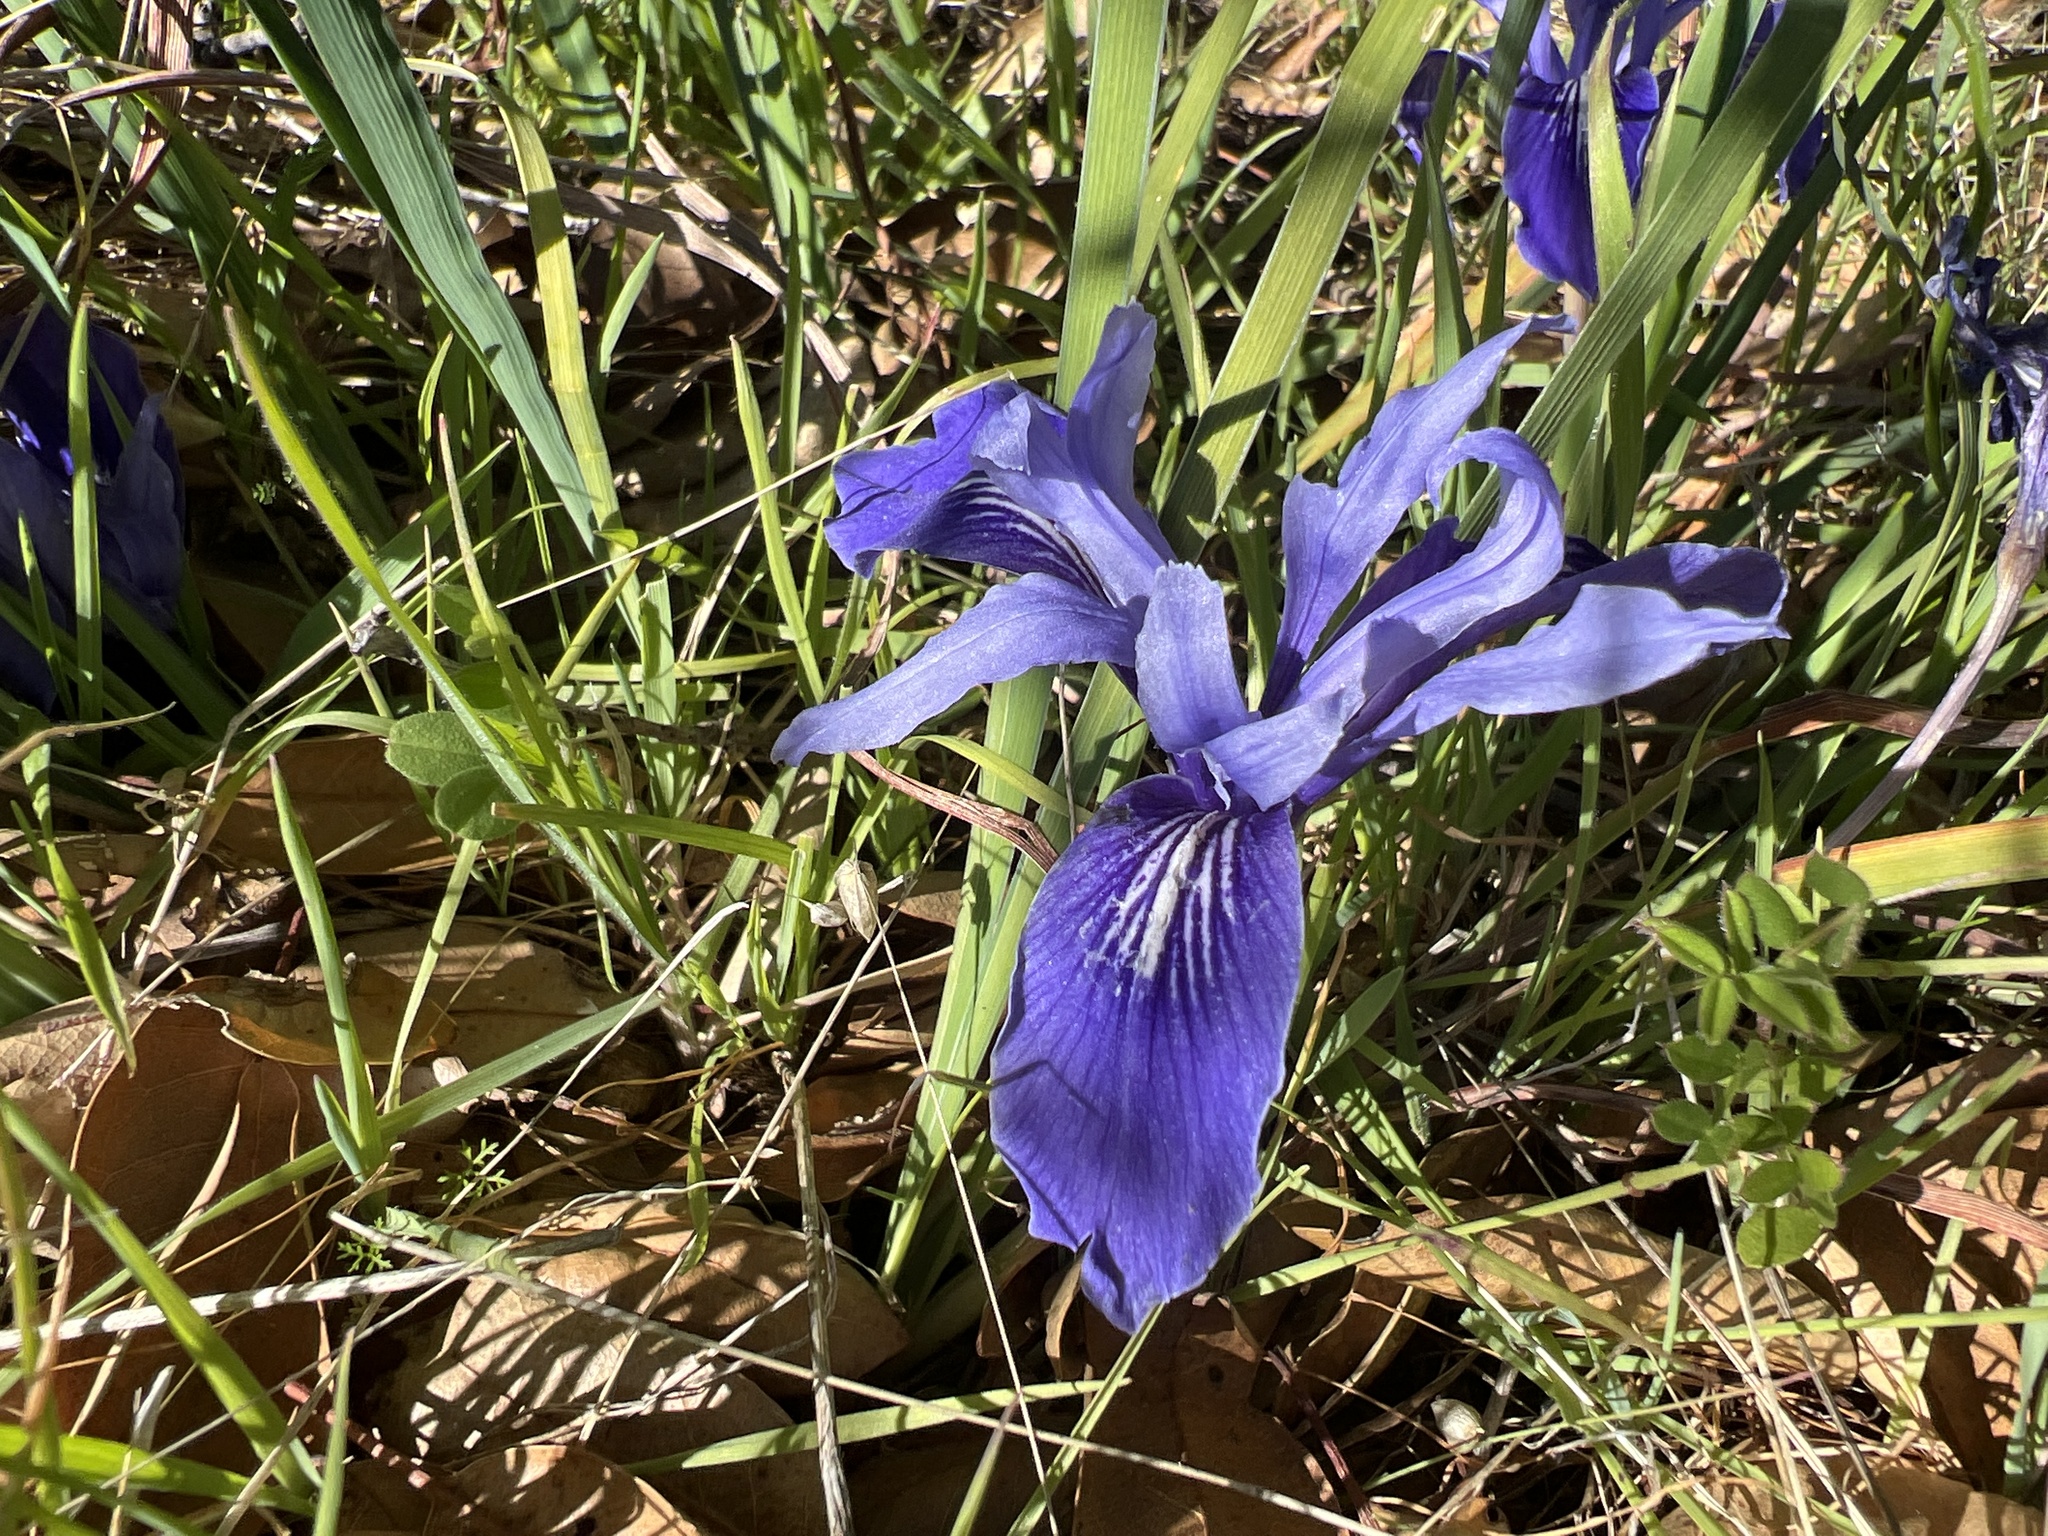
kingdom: Plantae
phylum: Tracheophyta
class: Liliopsida
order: Asparagales
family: Iridaceae
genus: Iris
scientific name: Iris macrosiphon
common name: Ground iris
